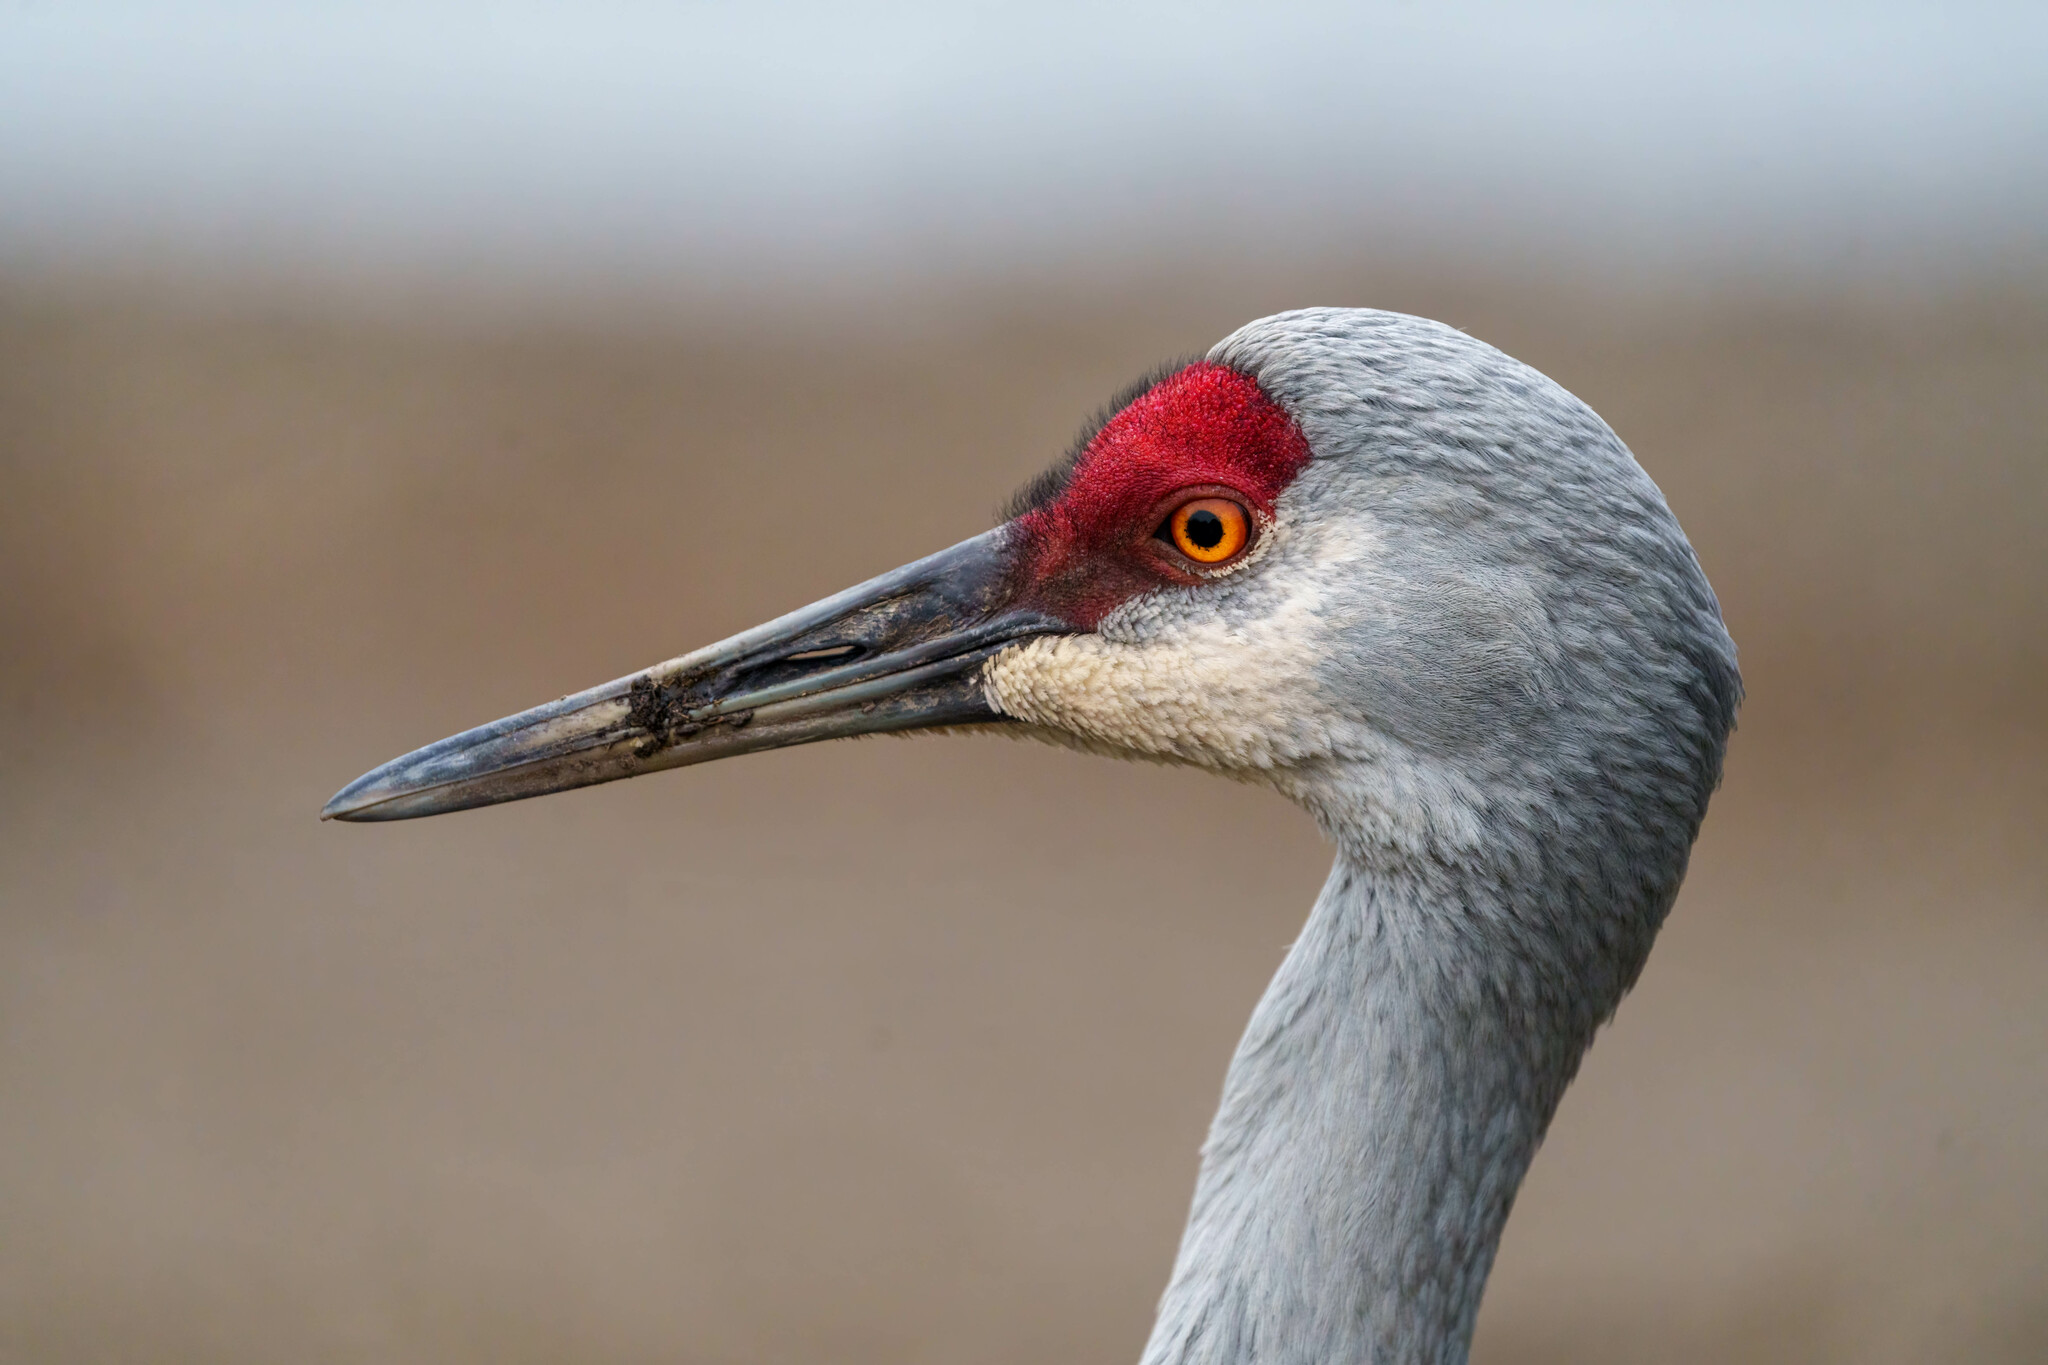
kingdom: Animalia
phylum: Chordata
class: Aves
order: Gruiformes
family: Gruidae
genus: Grus
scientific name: Grus canadensis
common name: Sandhill crane
